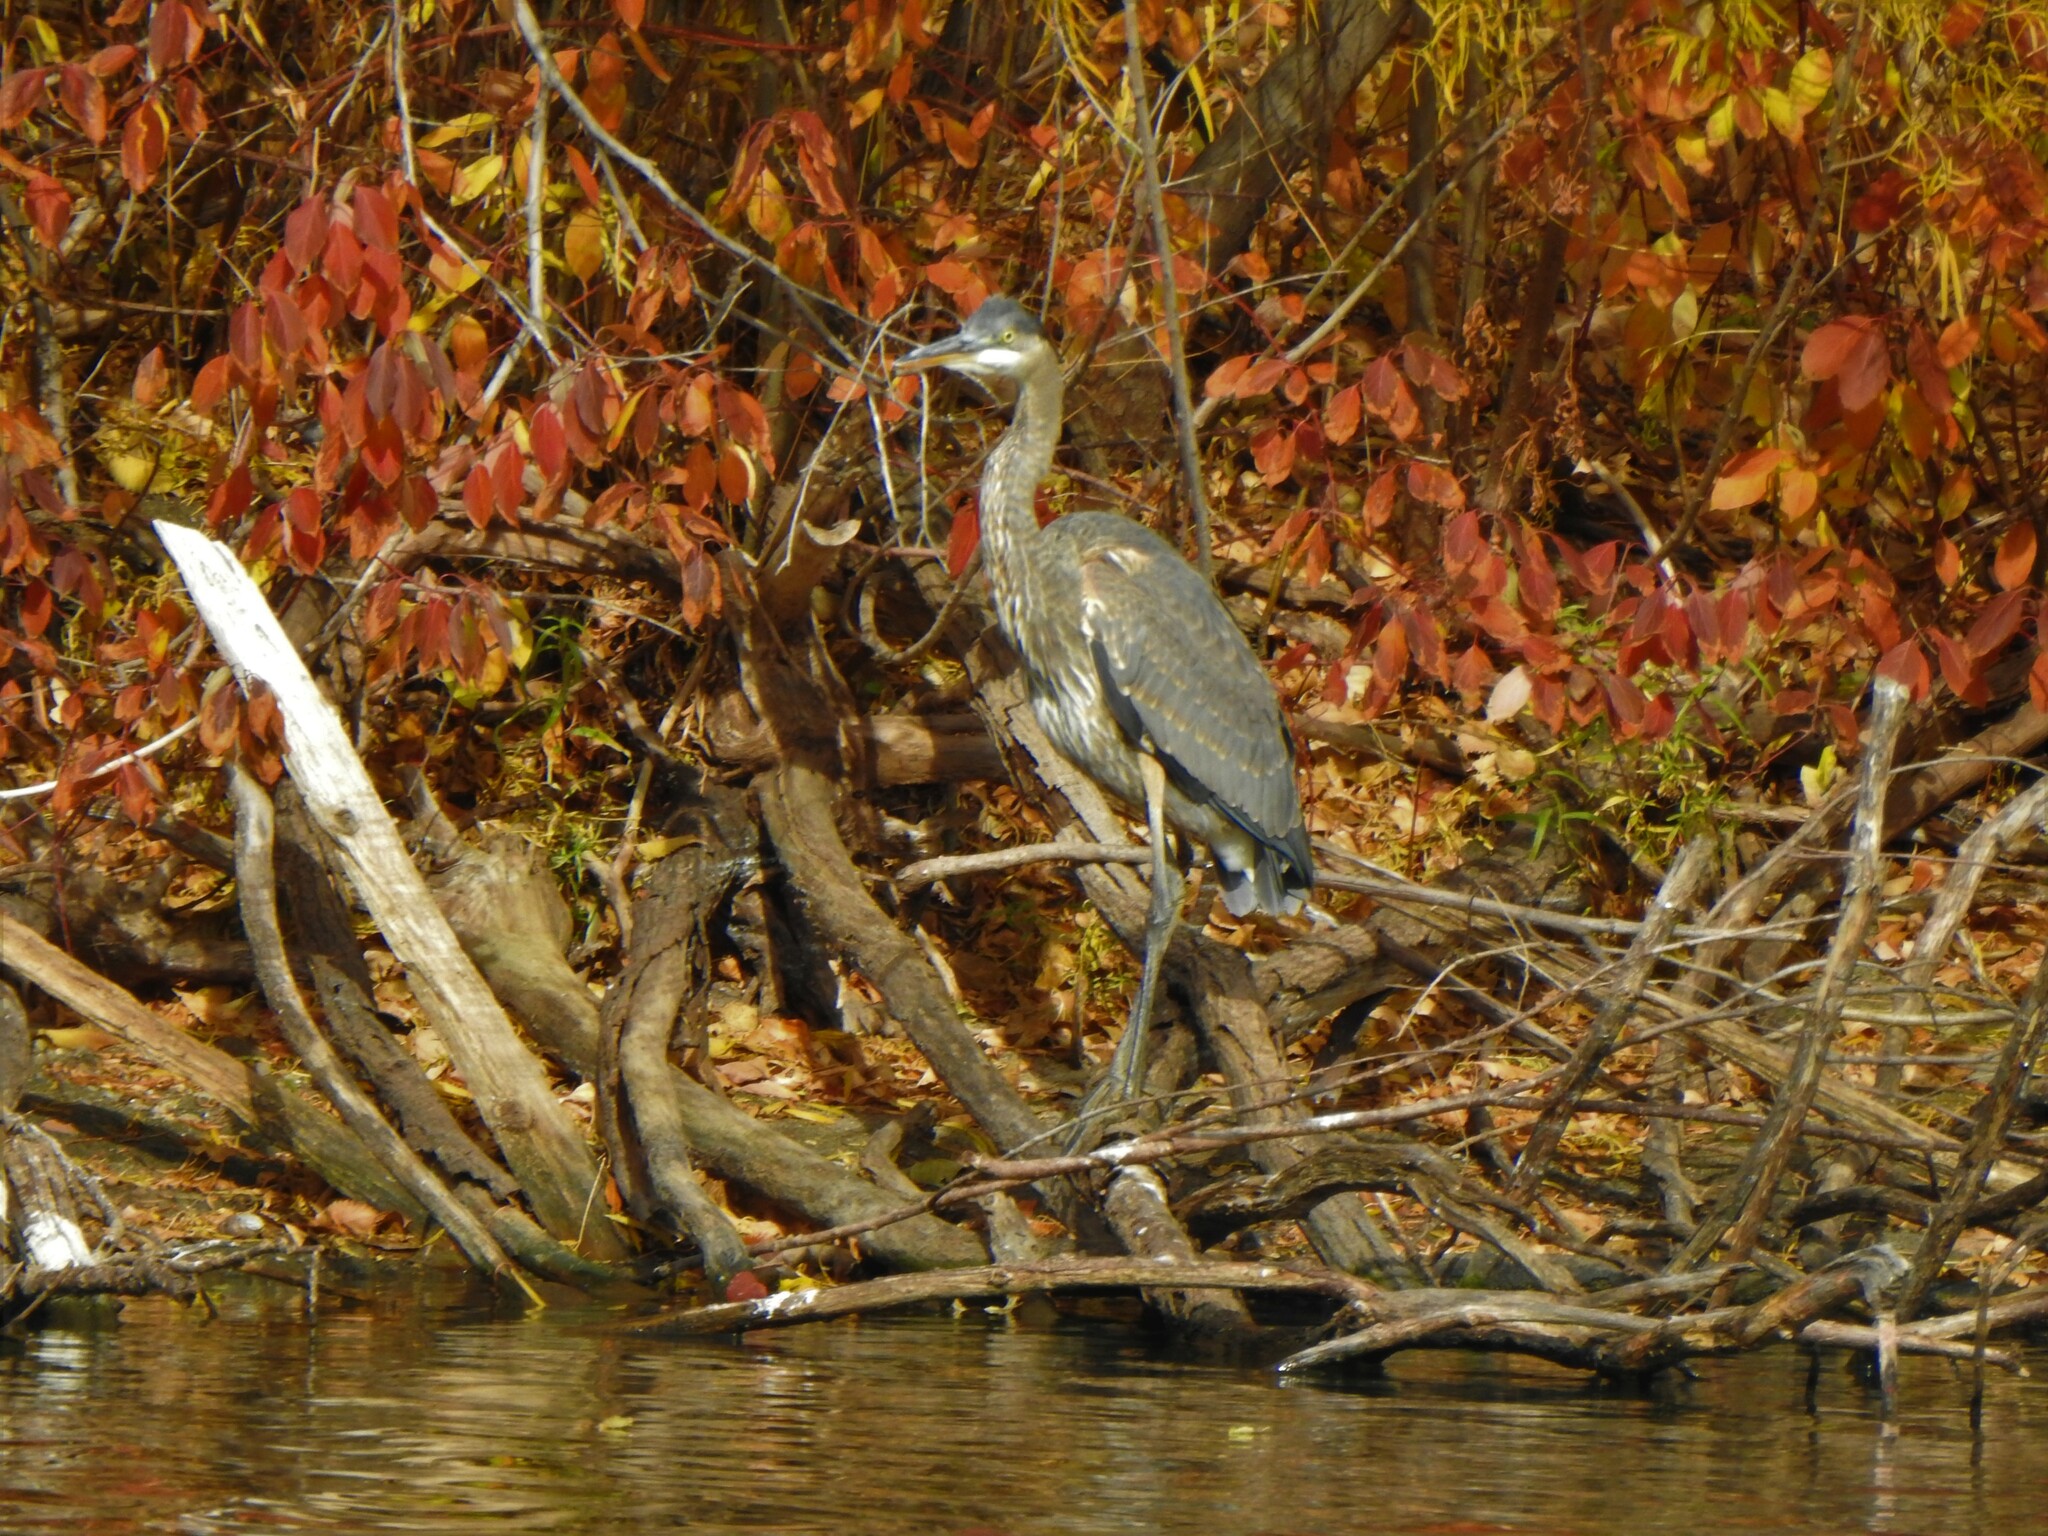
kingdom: Animalia
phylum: Chordata
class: Aves
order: Pelecaniformes
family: Ardeidae
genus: Ardea
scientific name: Ardea herodias
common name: Great blue heron
